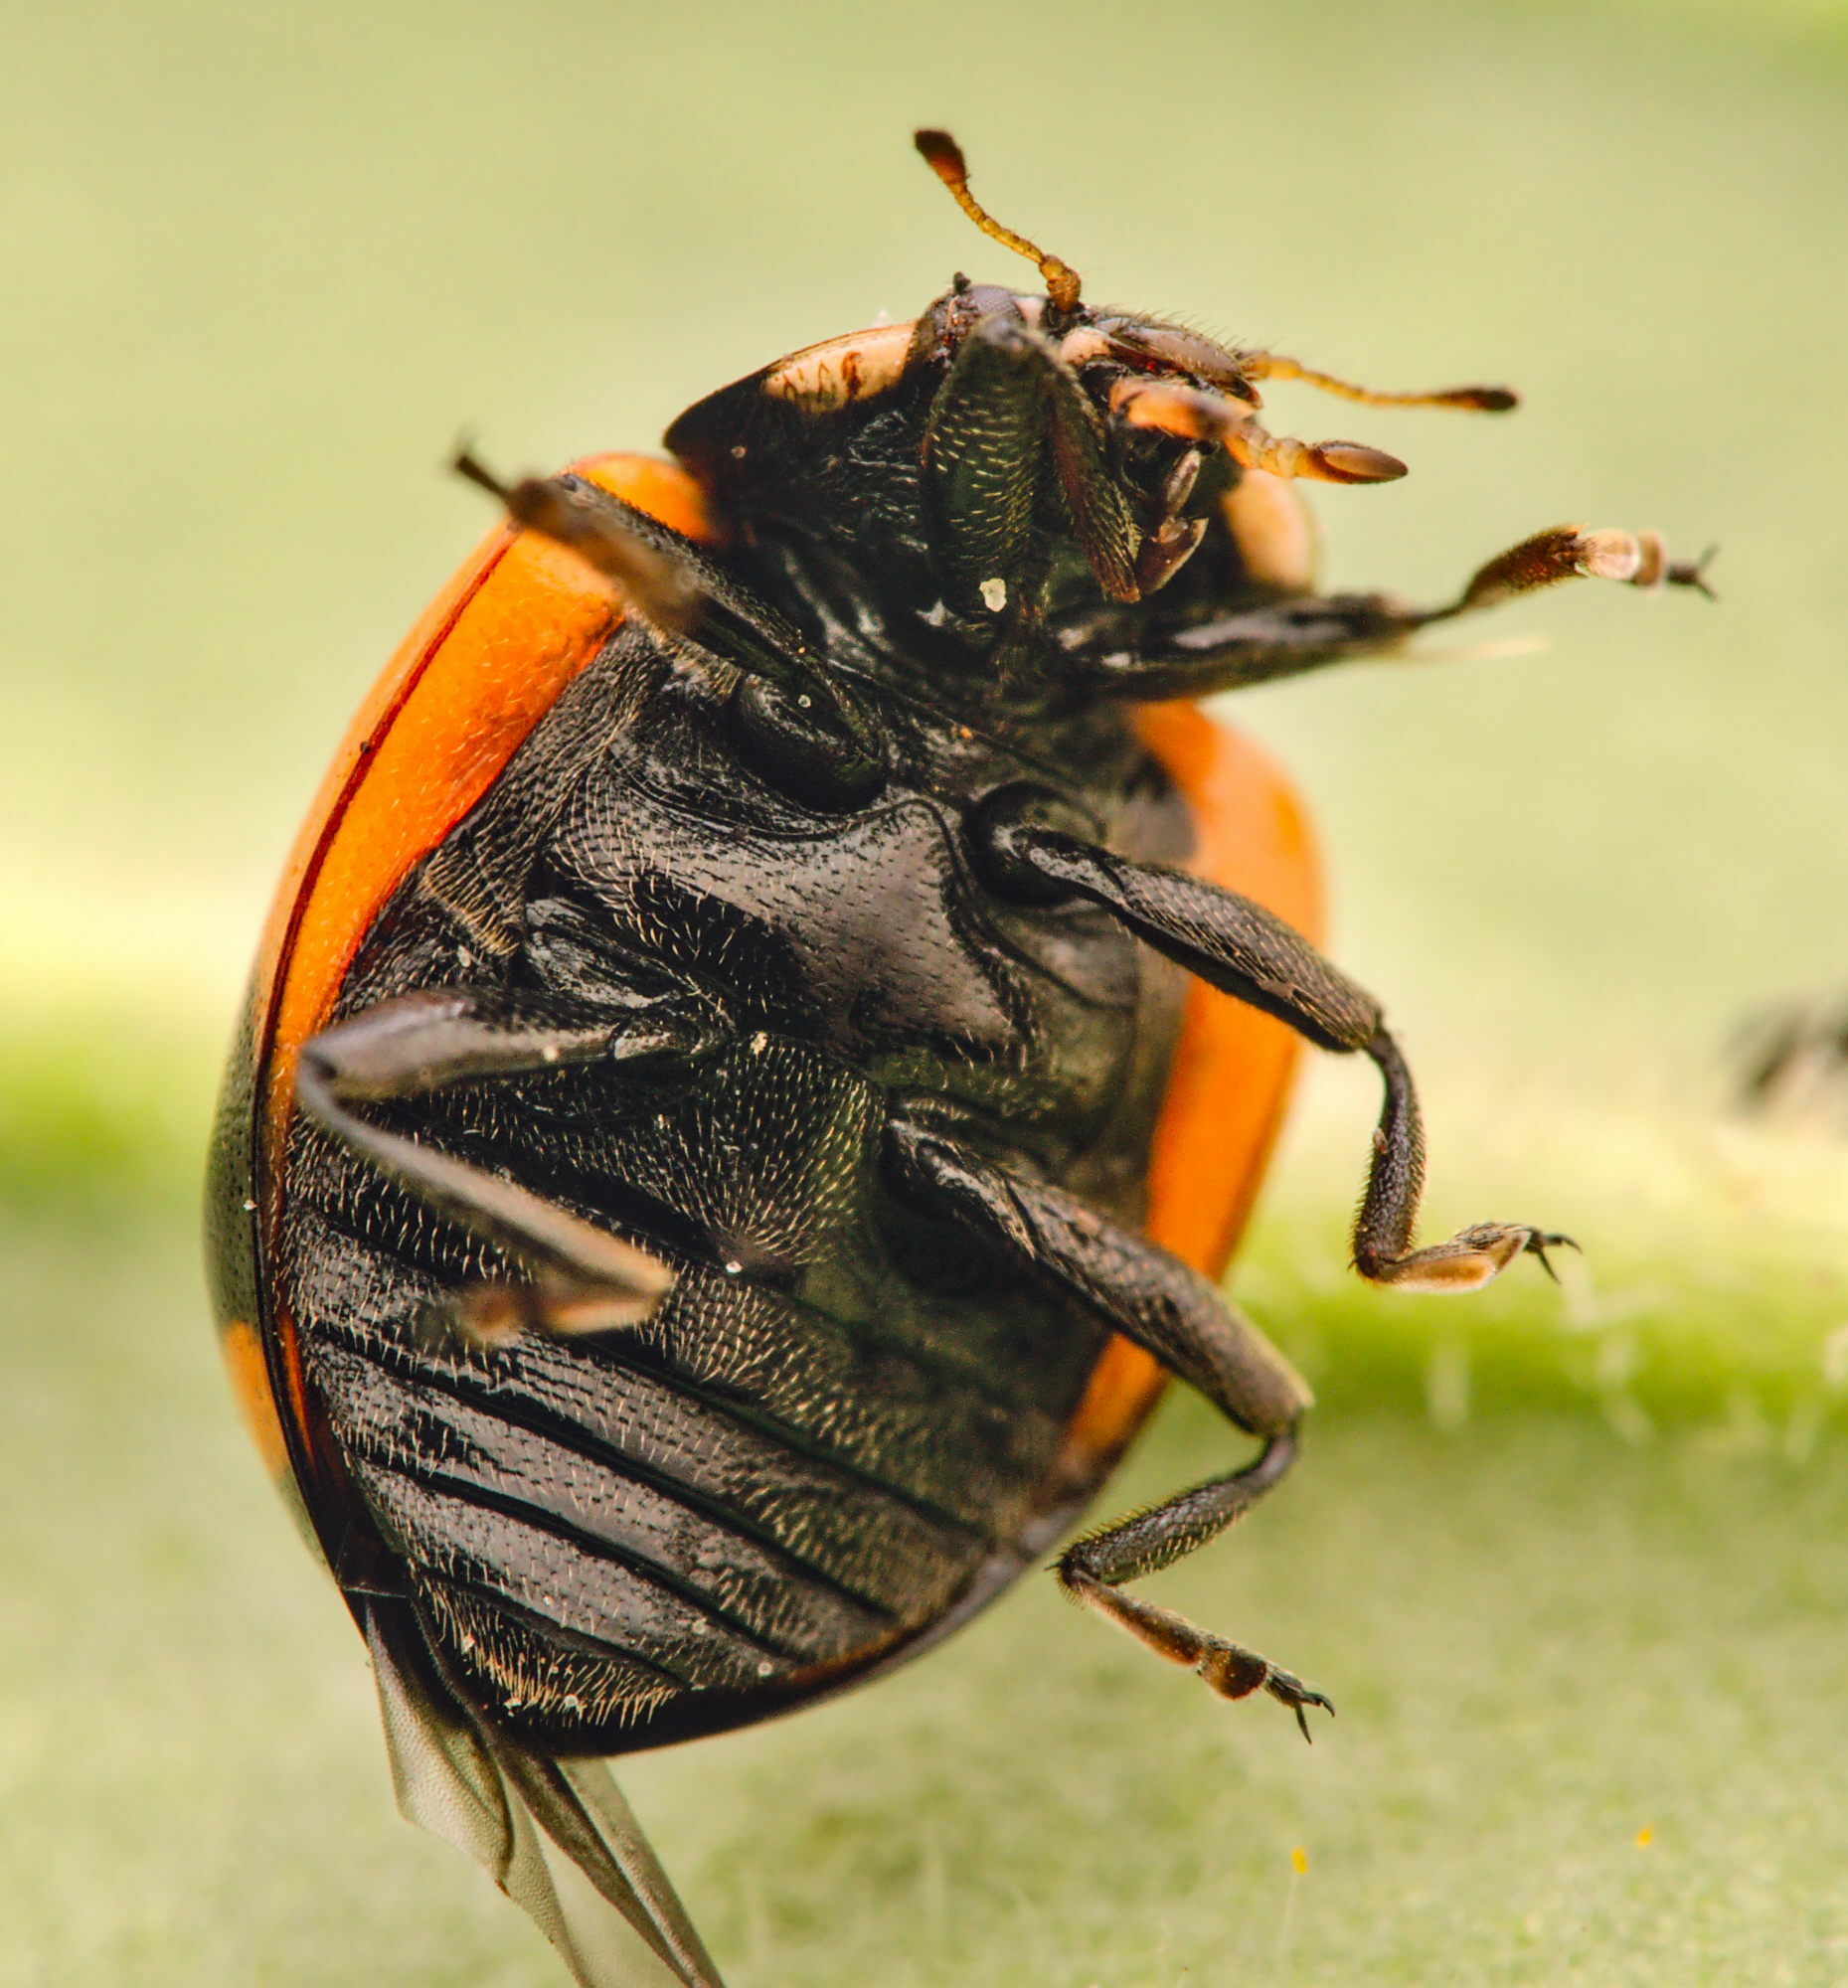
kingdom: Animalia
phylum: Arthropoda
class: Insecta
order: Coleoptera
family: Coccinellidae
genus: Ceratomegilla
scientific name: Ceratomegilla alpina
